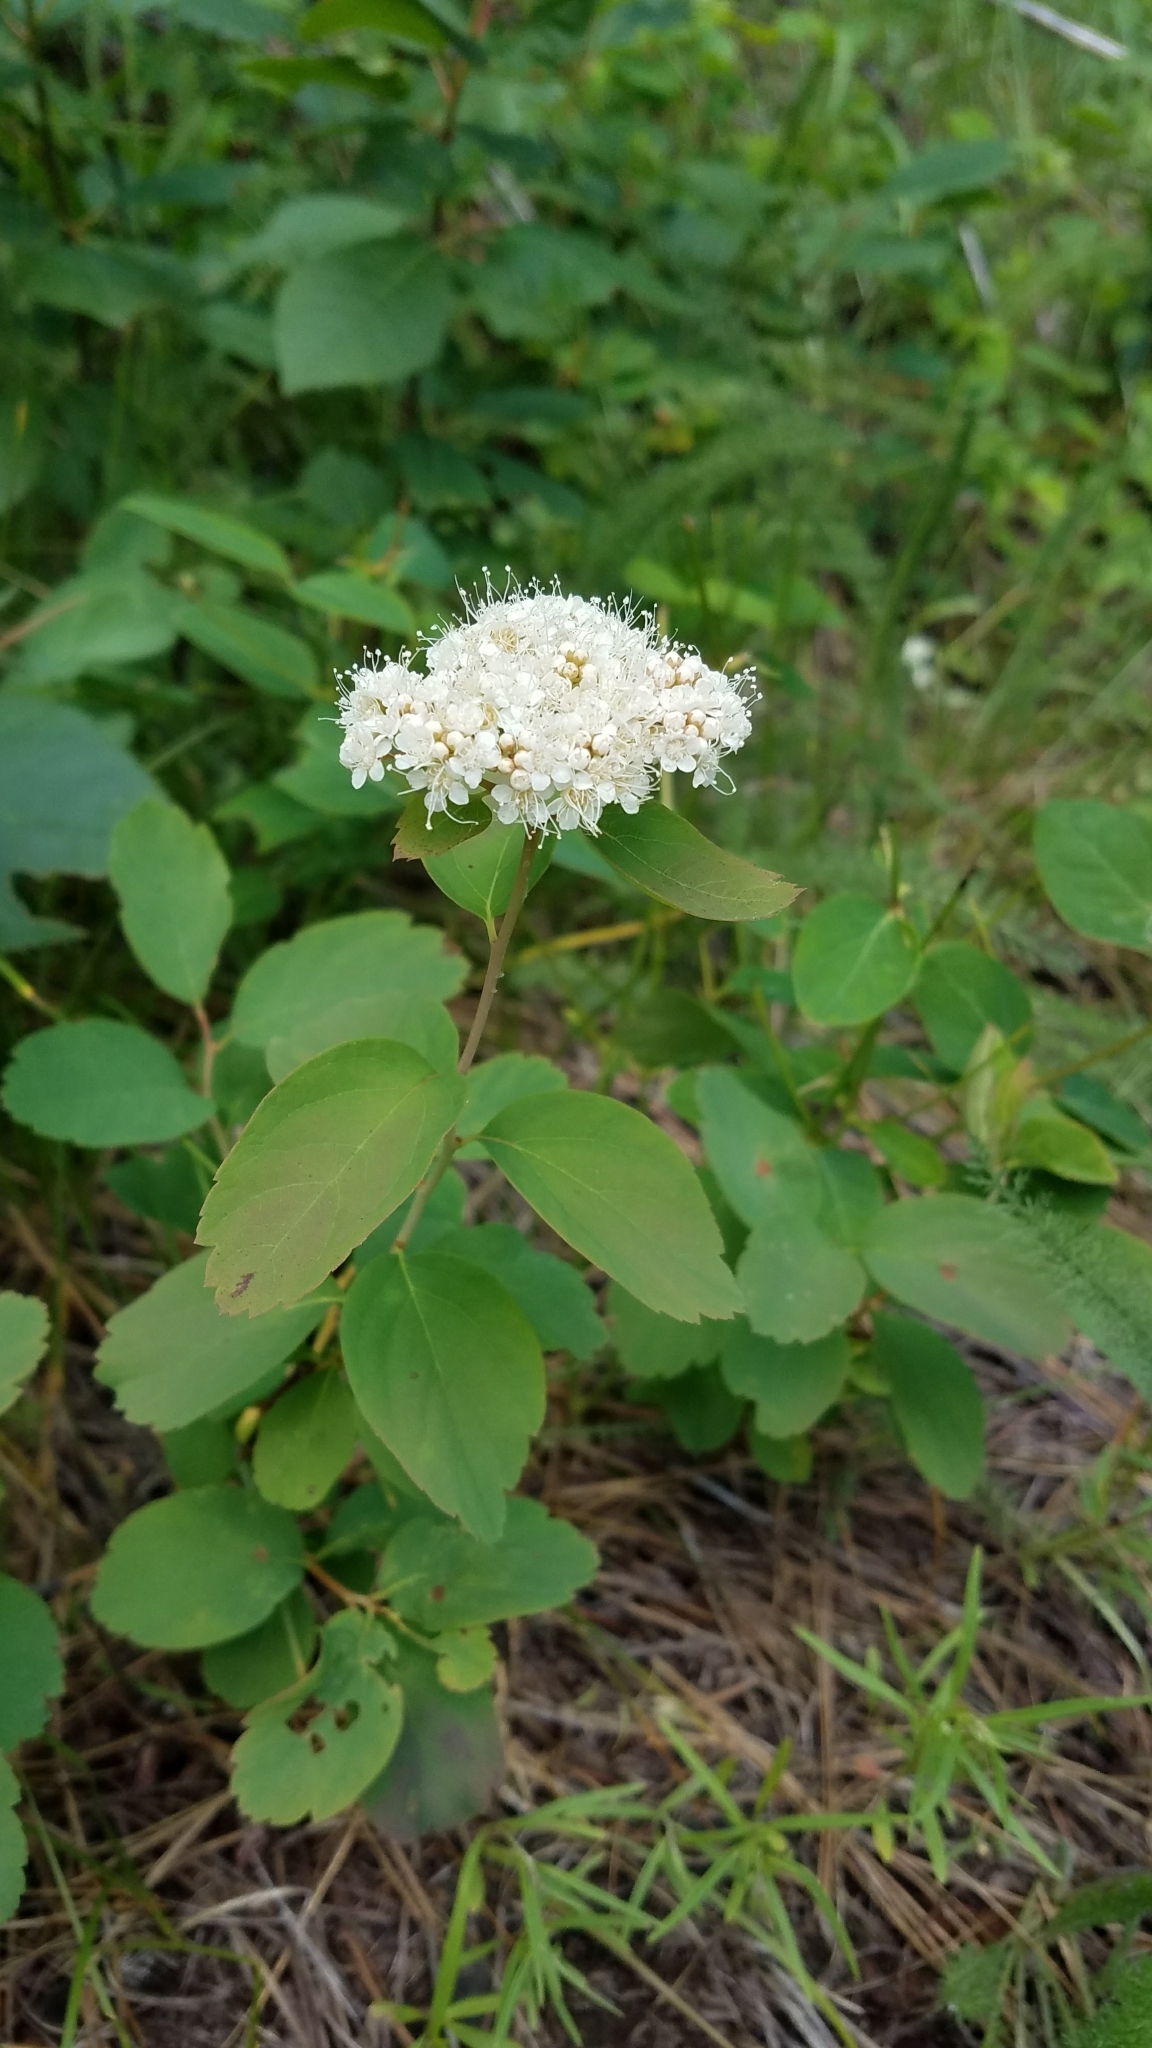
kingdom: Plantae
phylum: Tracheophyta
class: Magnoliopsida
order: Rosales
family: Rosaceae
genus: Spiraea
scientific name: Spiraea lucida
